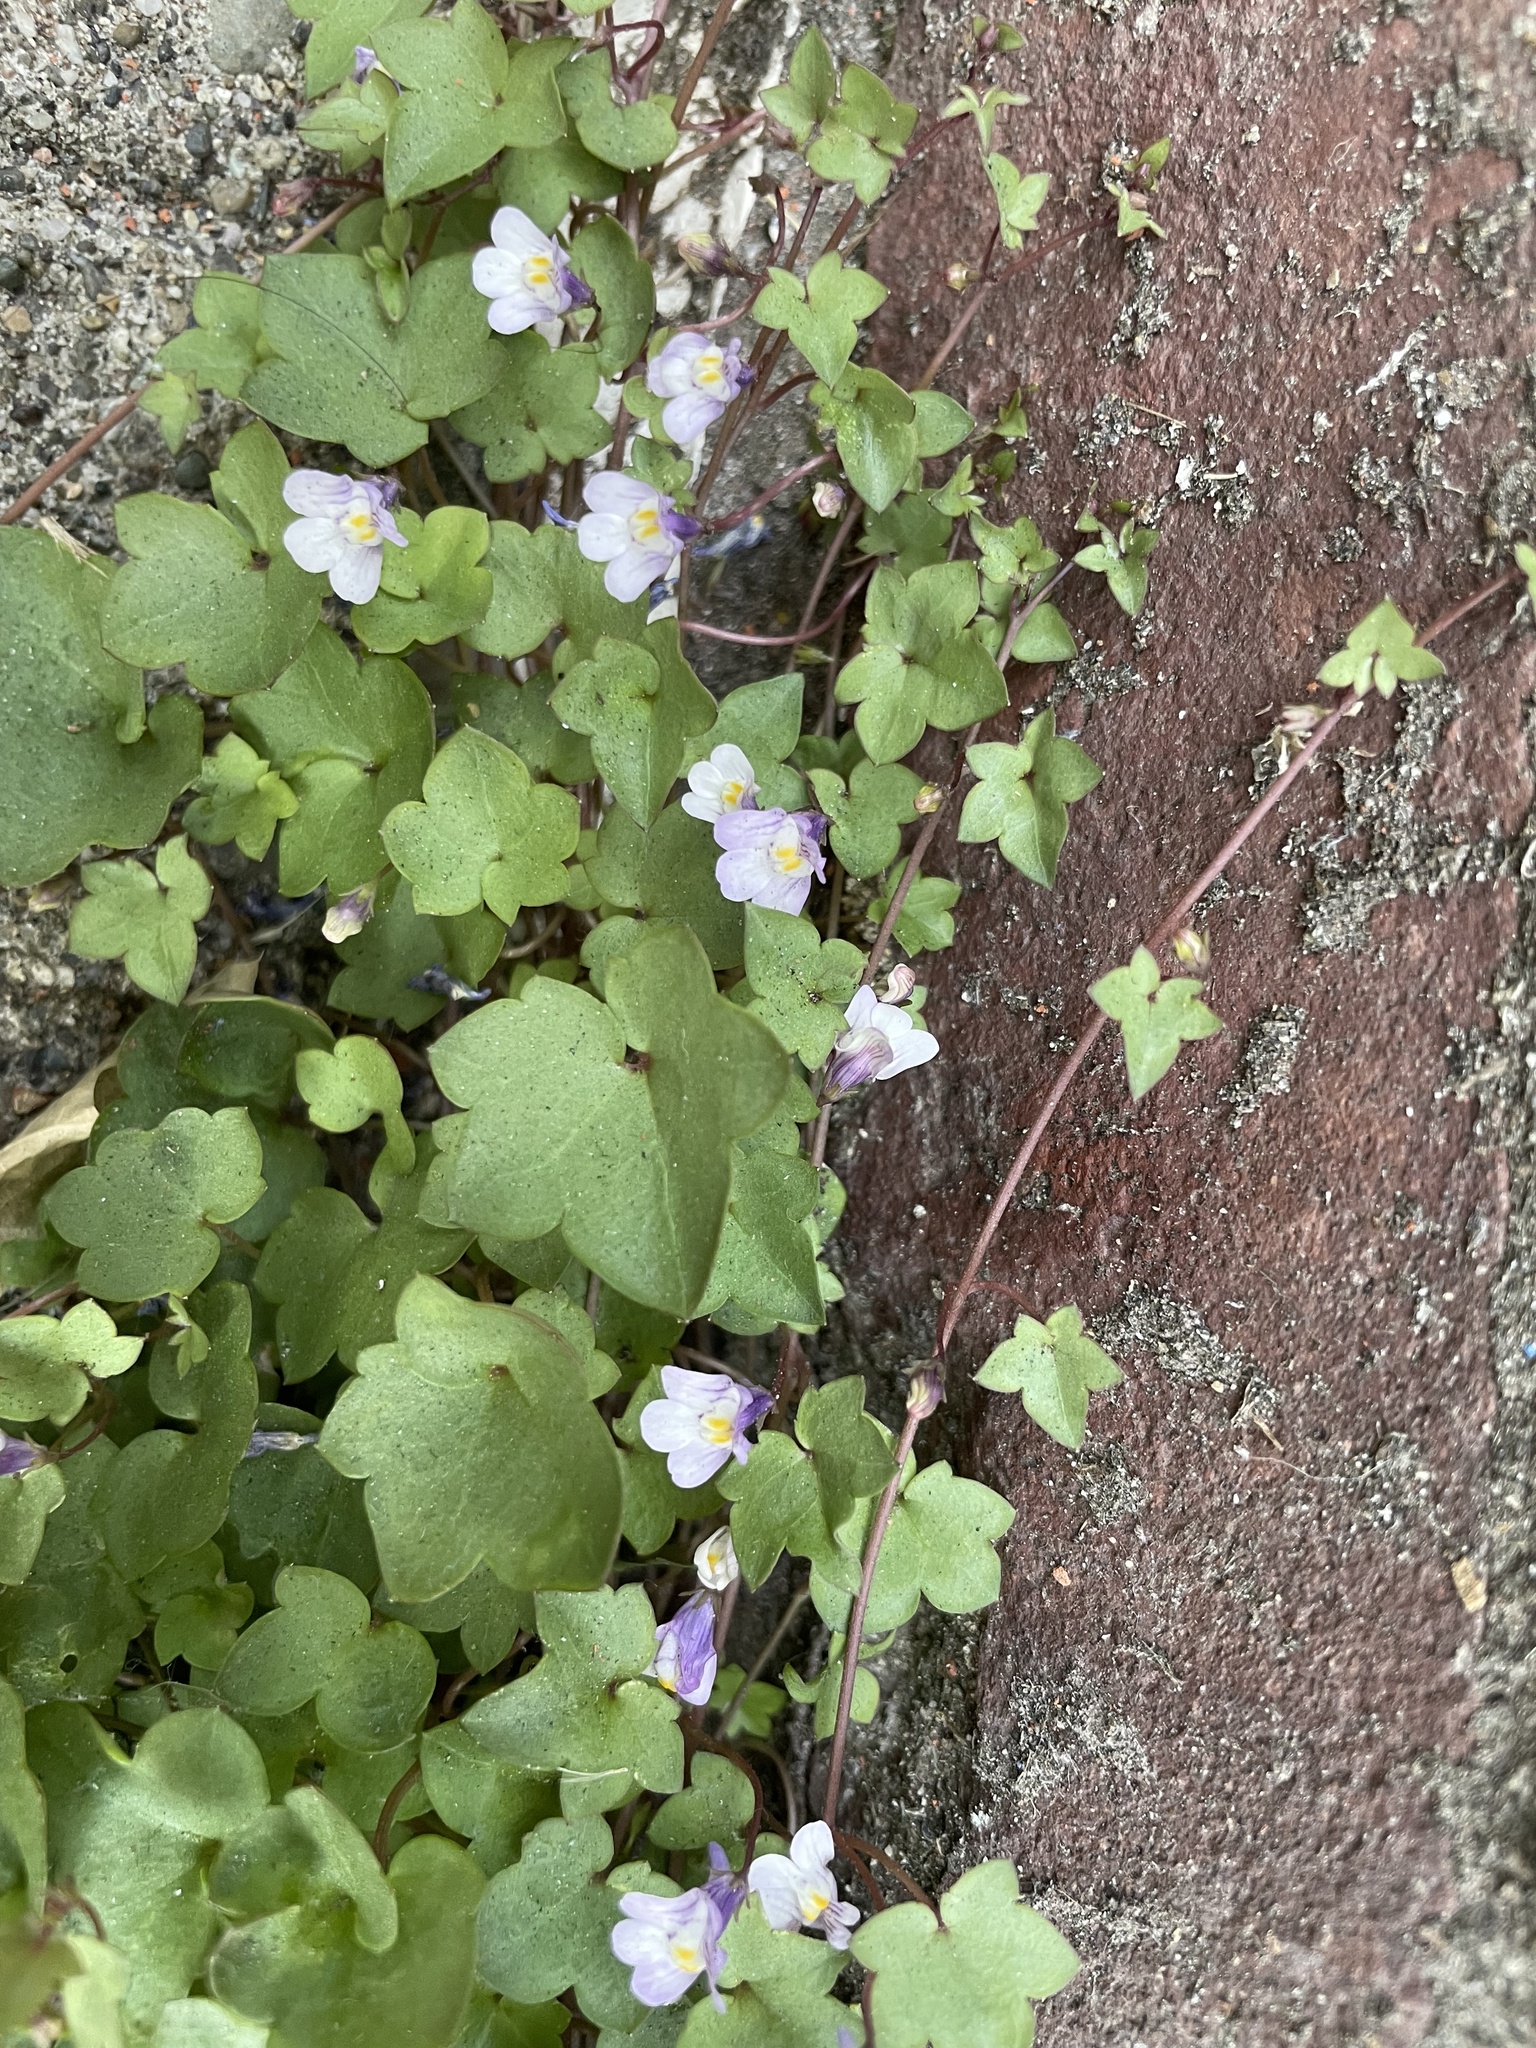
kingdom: Plantae
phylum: Tracheophyta
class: Magnoliopsida
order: Lamiales
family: Plantaginaceae
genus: Cymbalaria
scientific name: Cymbalaria muralis
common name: Ivy-leaved toadflax
